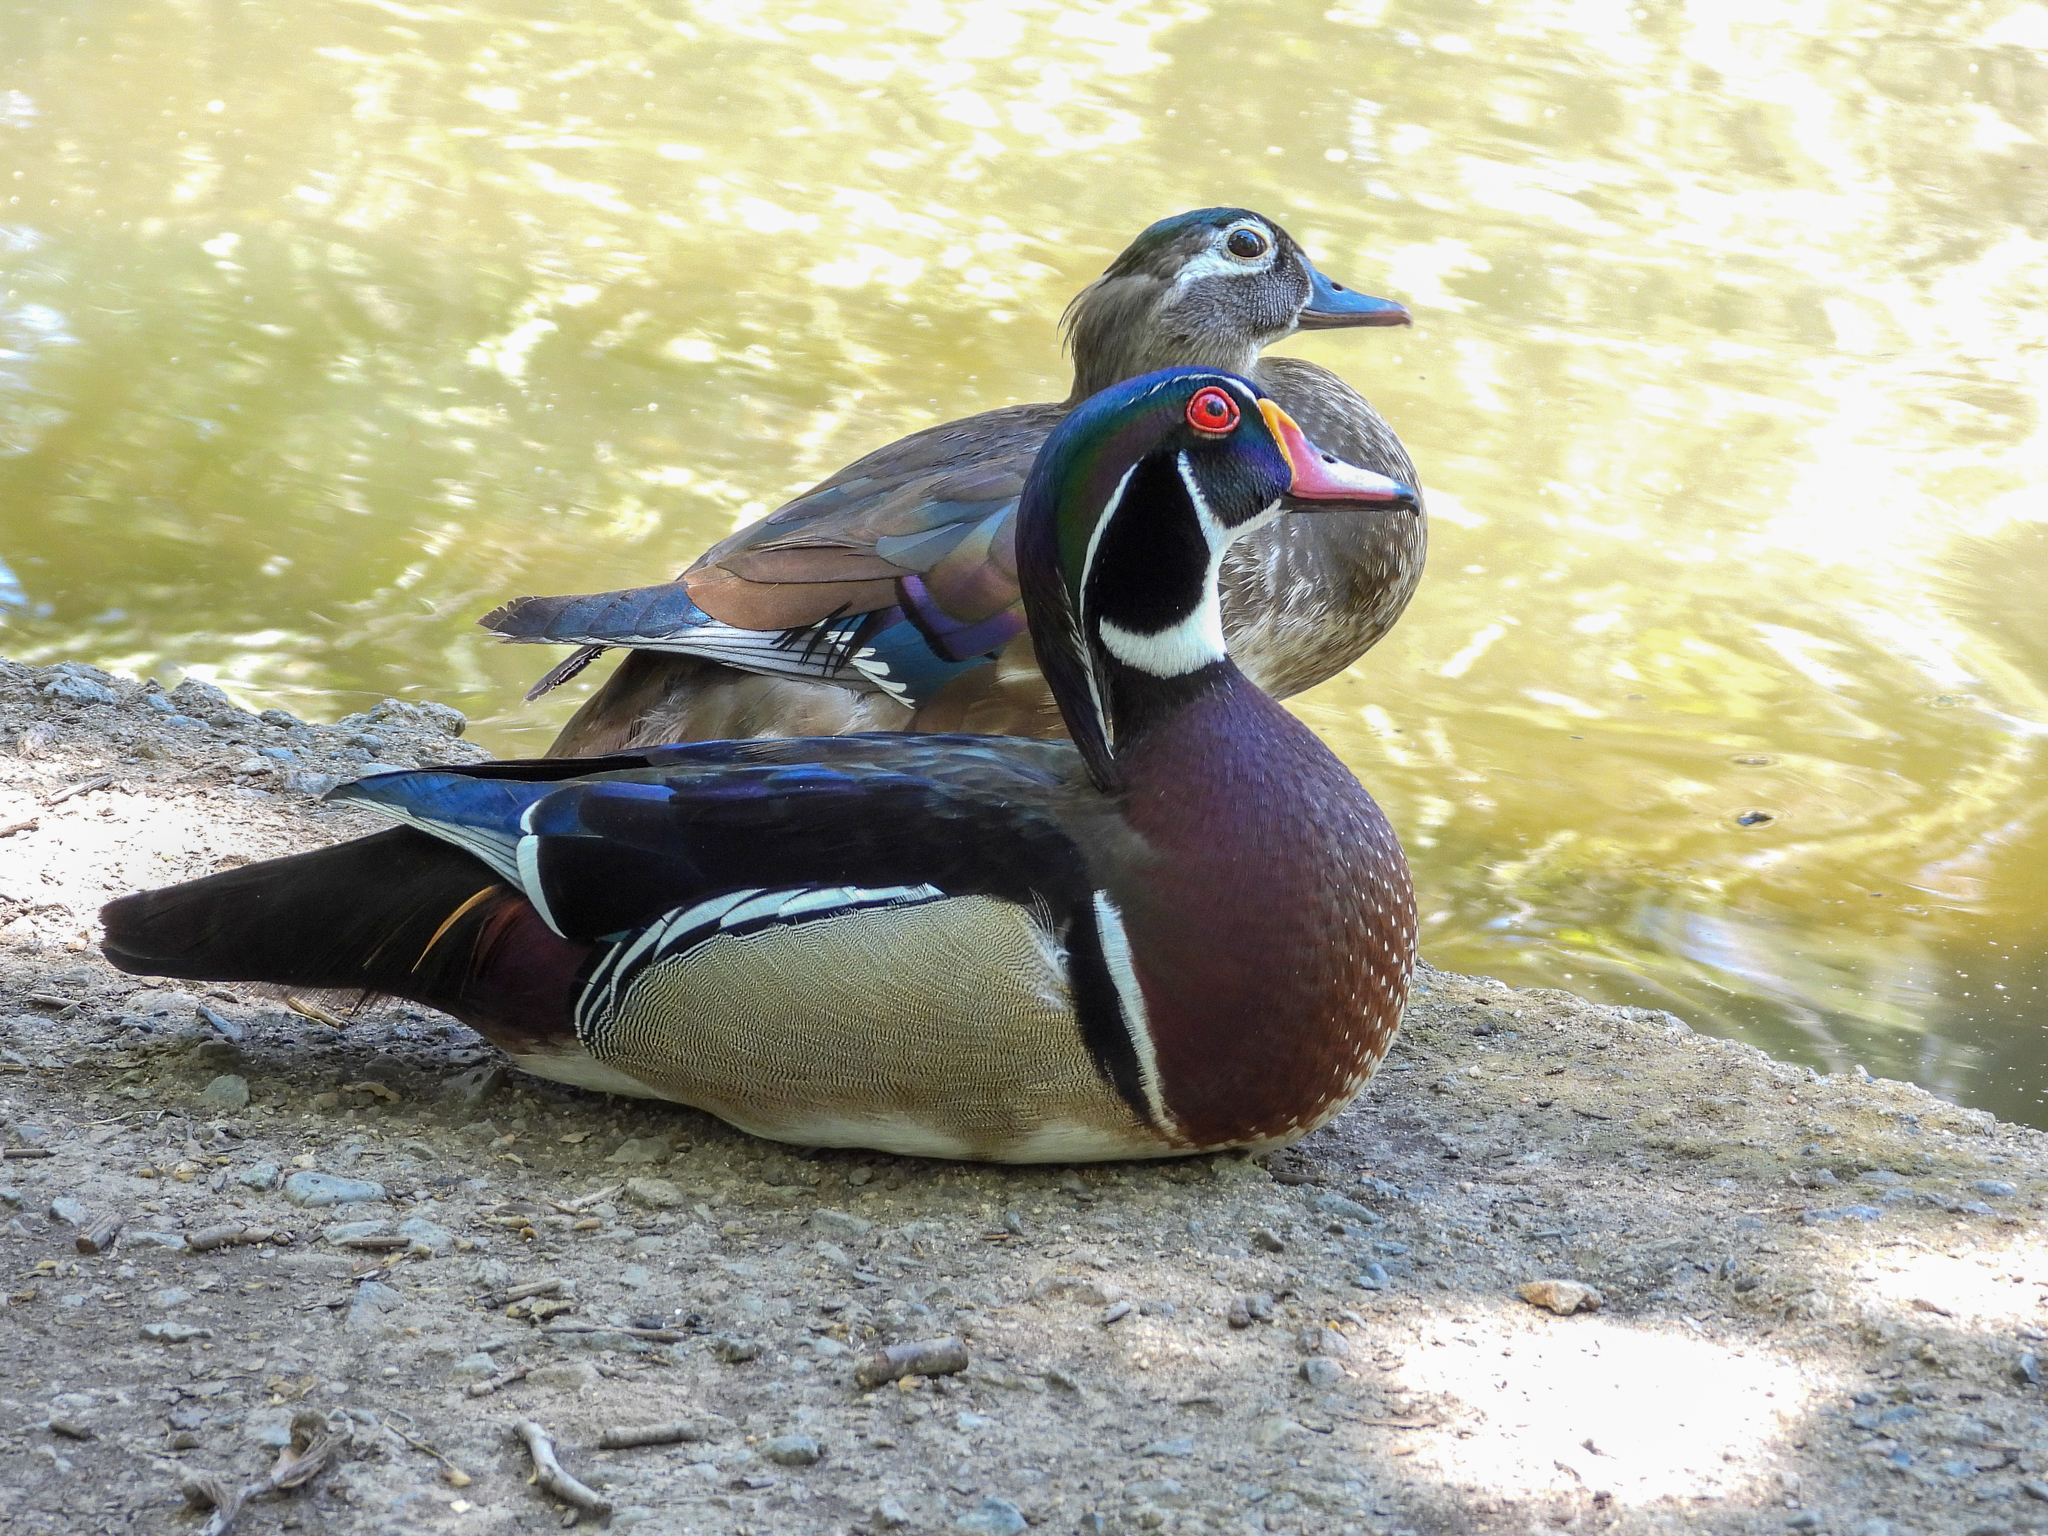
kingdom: Animalia
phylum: Chordata
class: Aves
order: Anseriformes
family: Anatidae
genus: Aix
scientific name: Aix sponsa
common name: Wood duck
